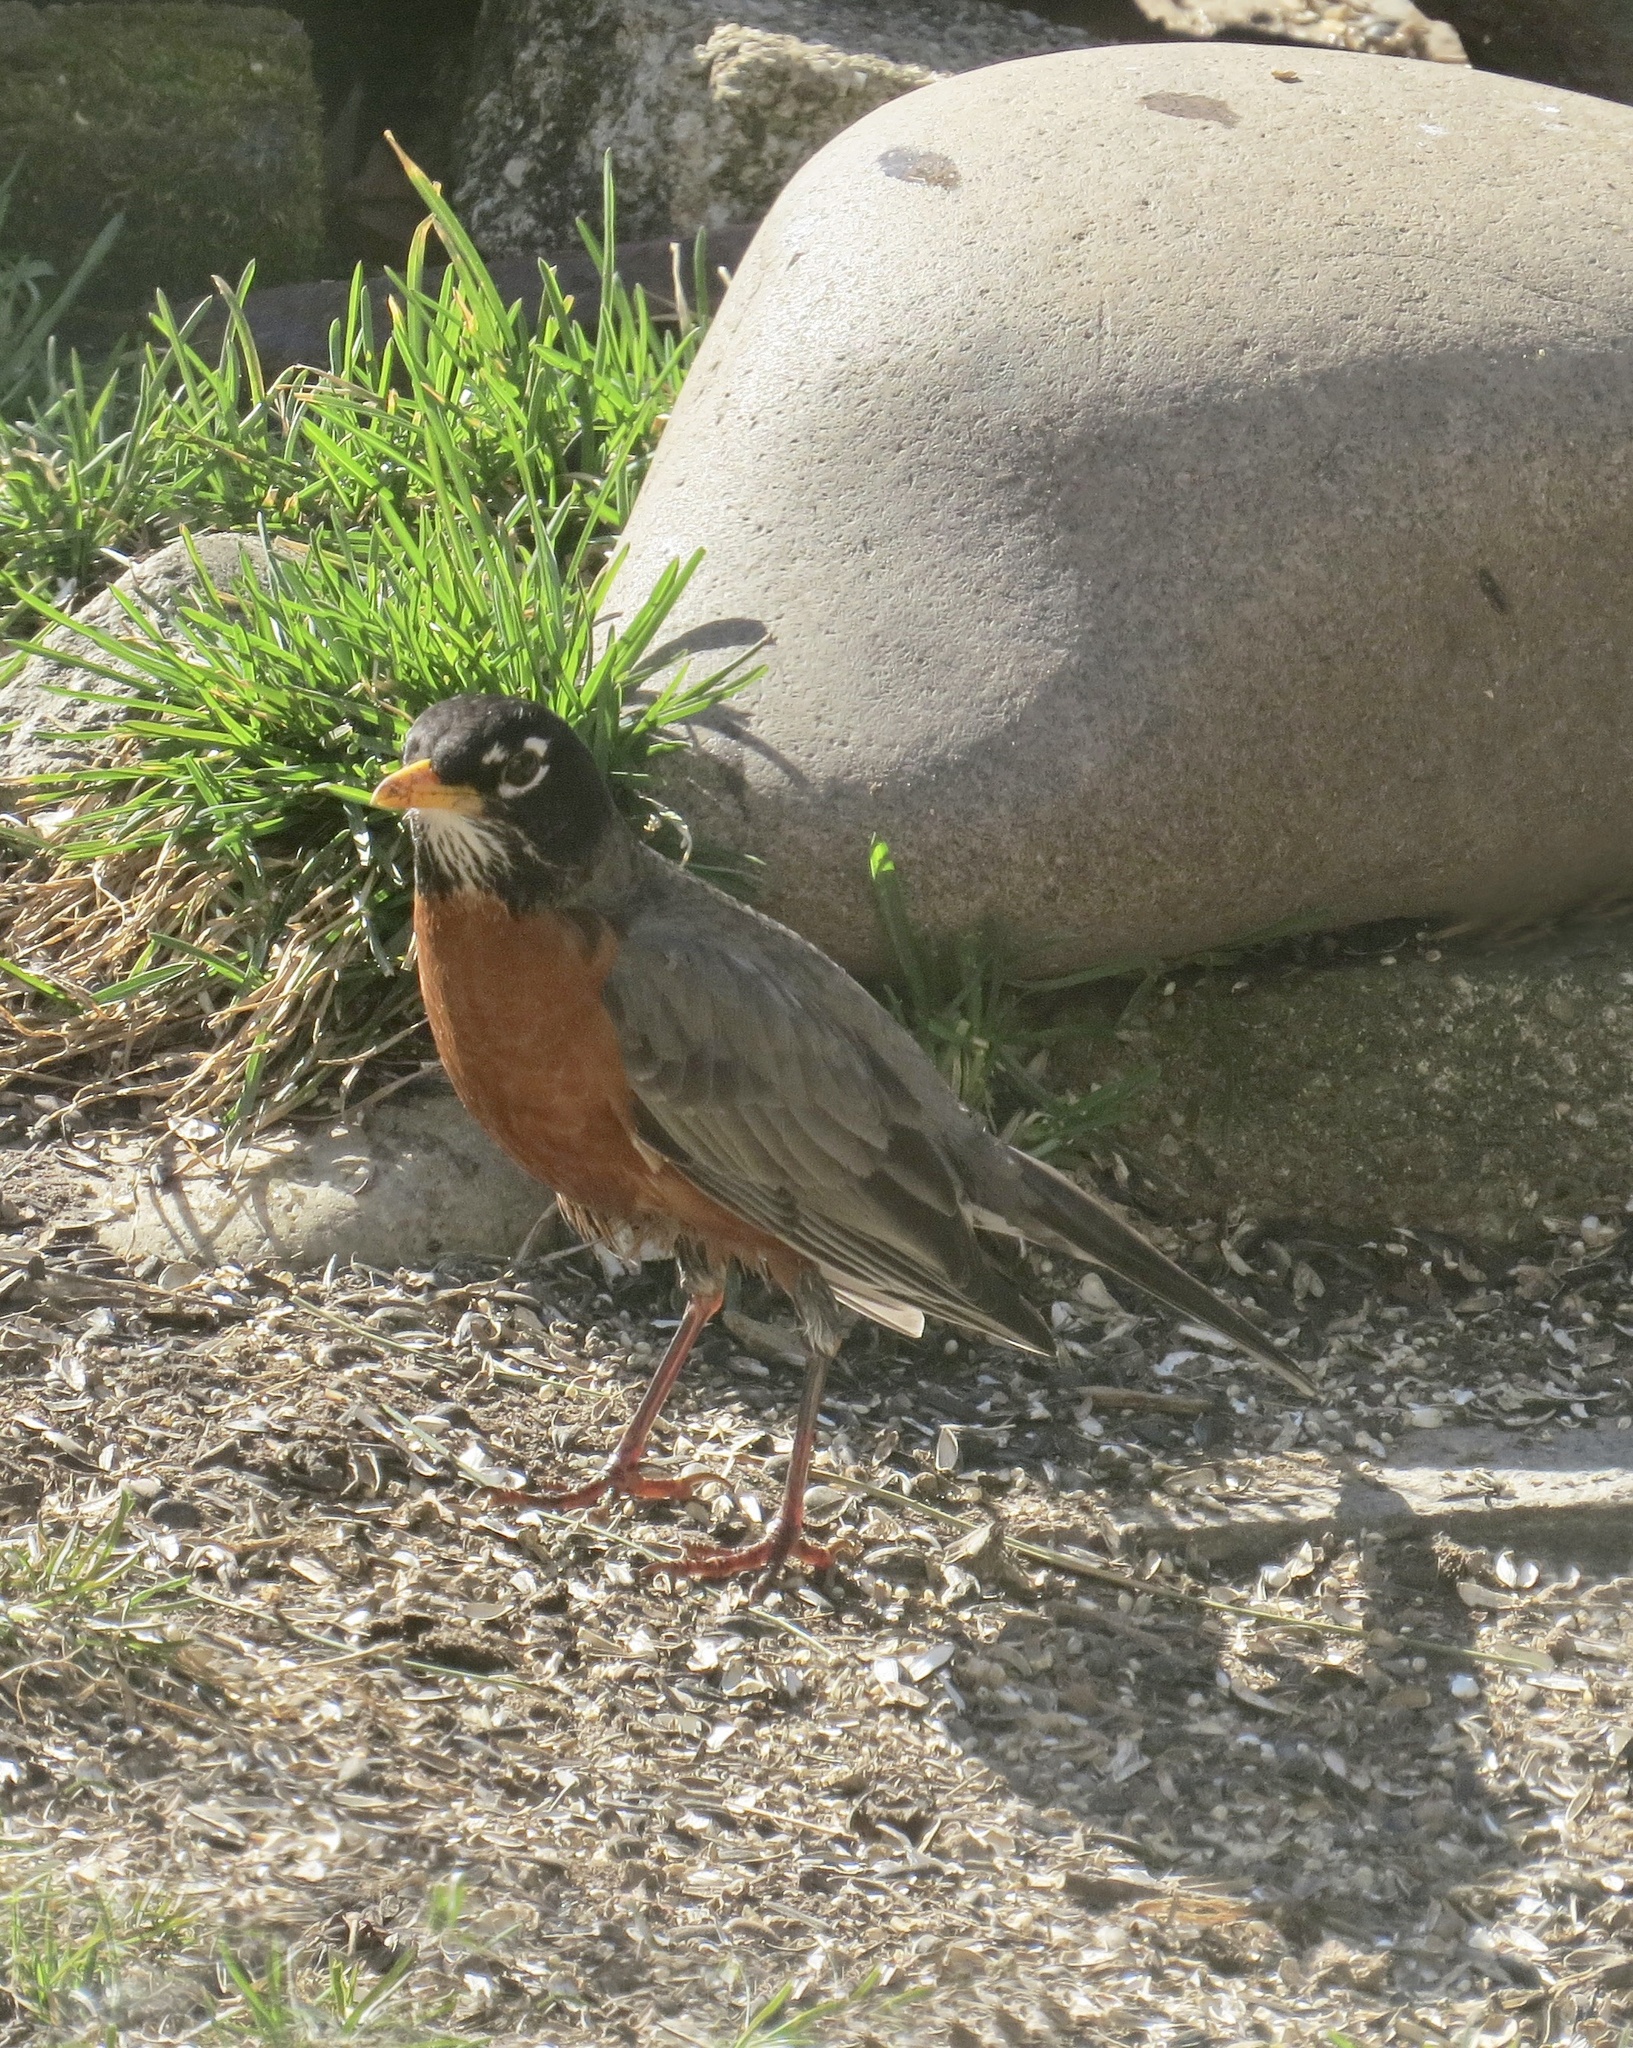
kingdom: Animalia
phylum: Chordata
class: Aves
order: Passeriformes
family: Turdidae
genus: Turdus
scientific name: Turdus migratorius
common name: American robin
